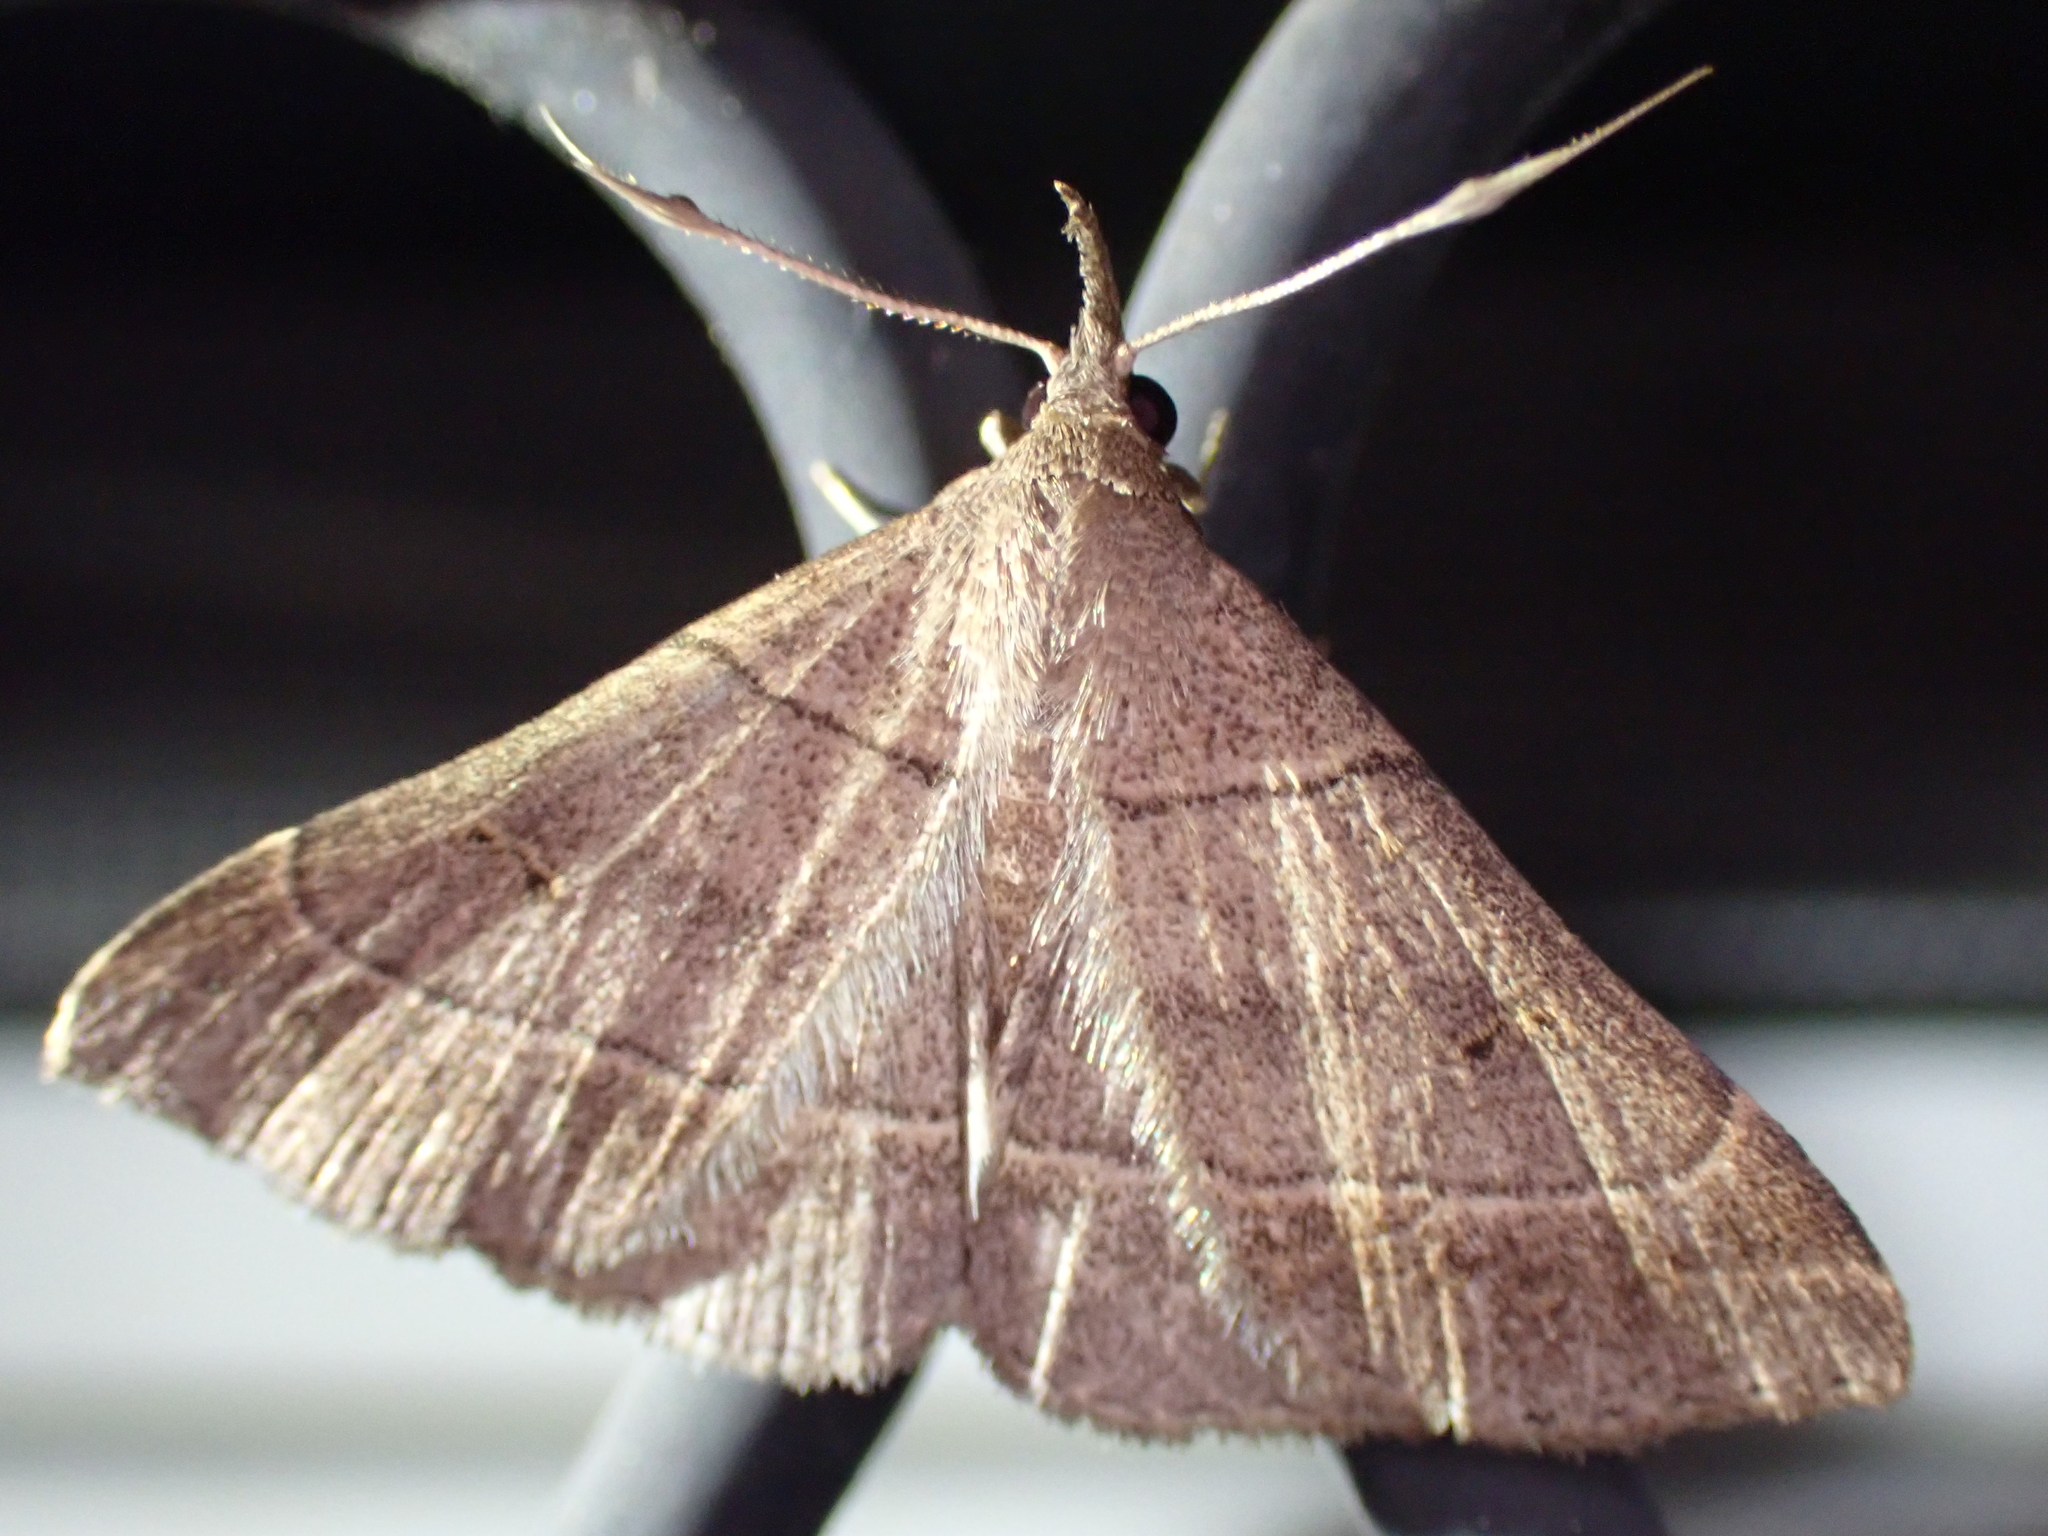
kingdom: Animalia
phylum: Arthropoda
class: Insecta
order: Lepidoptera
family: Erebidae
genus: Renia
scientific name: Renia flavipunctalis
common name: Yellow-spotted renia moth
